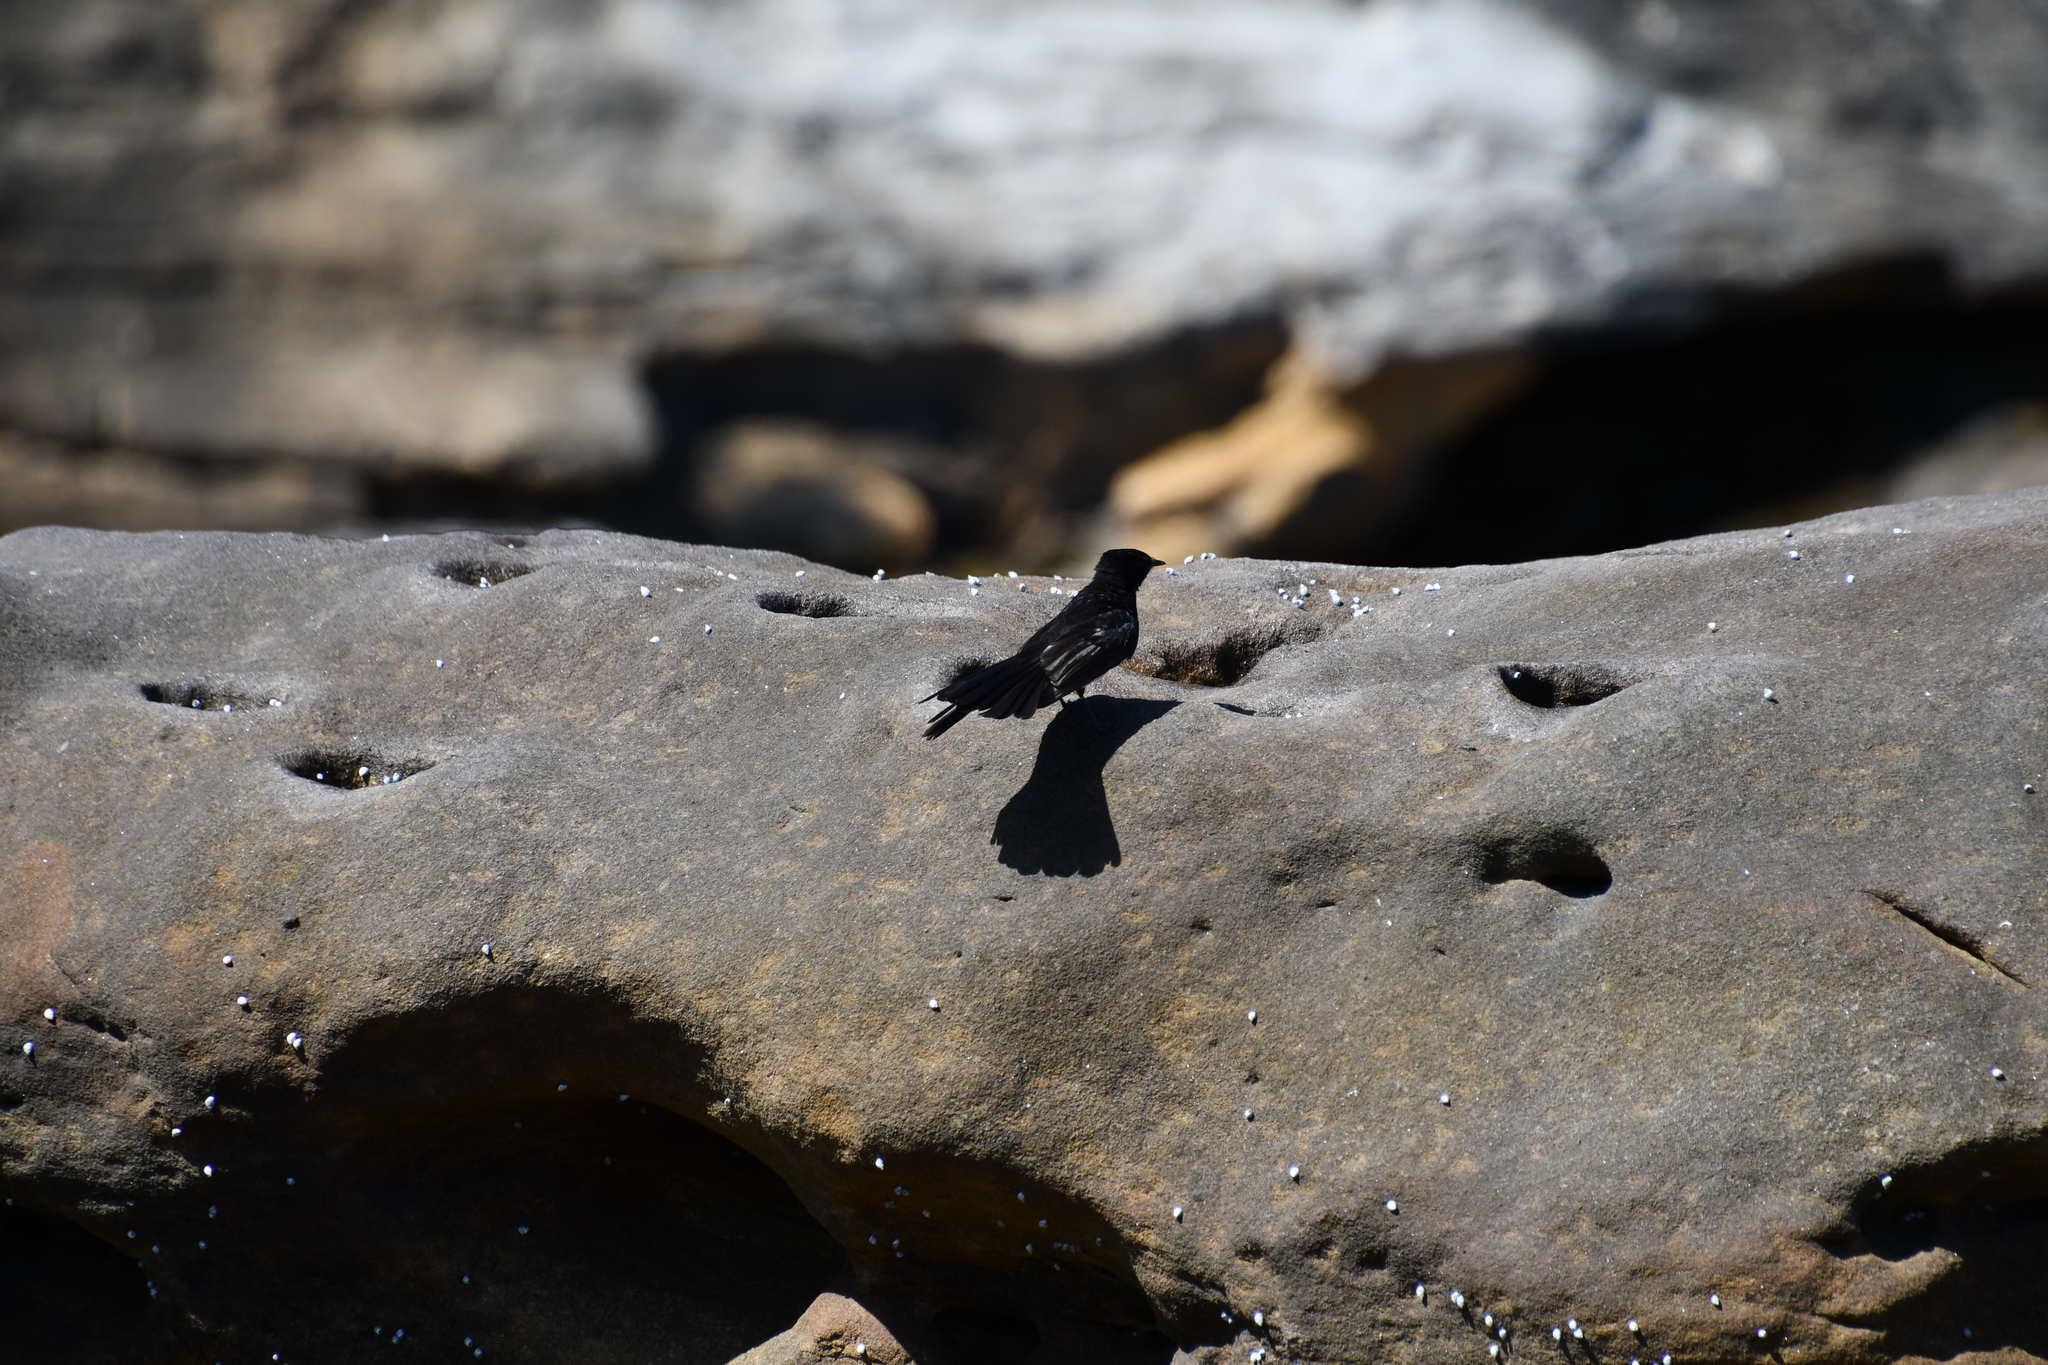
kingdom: Animalia
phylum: Chordata
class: Aves
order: Passeriformes
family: Rhipiduridae
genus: Rhipidura
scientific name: Rhipidura leucophrys
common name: Willie wagtail
